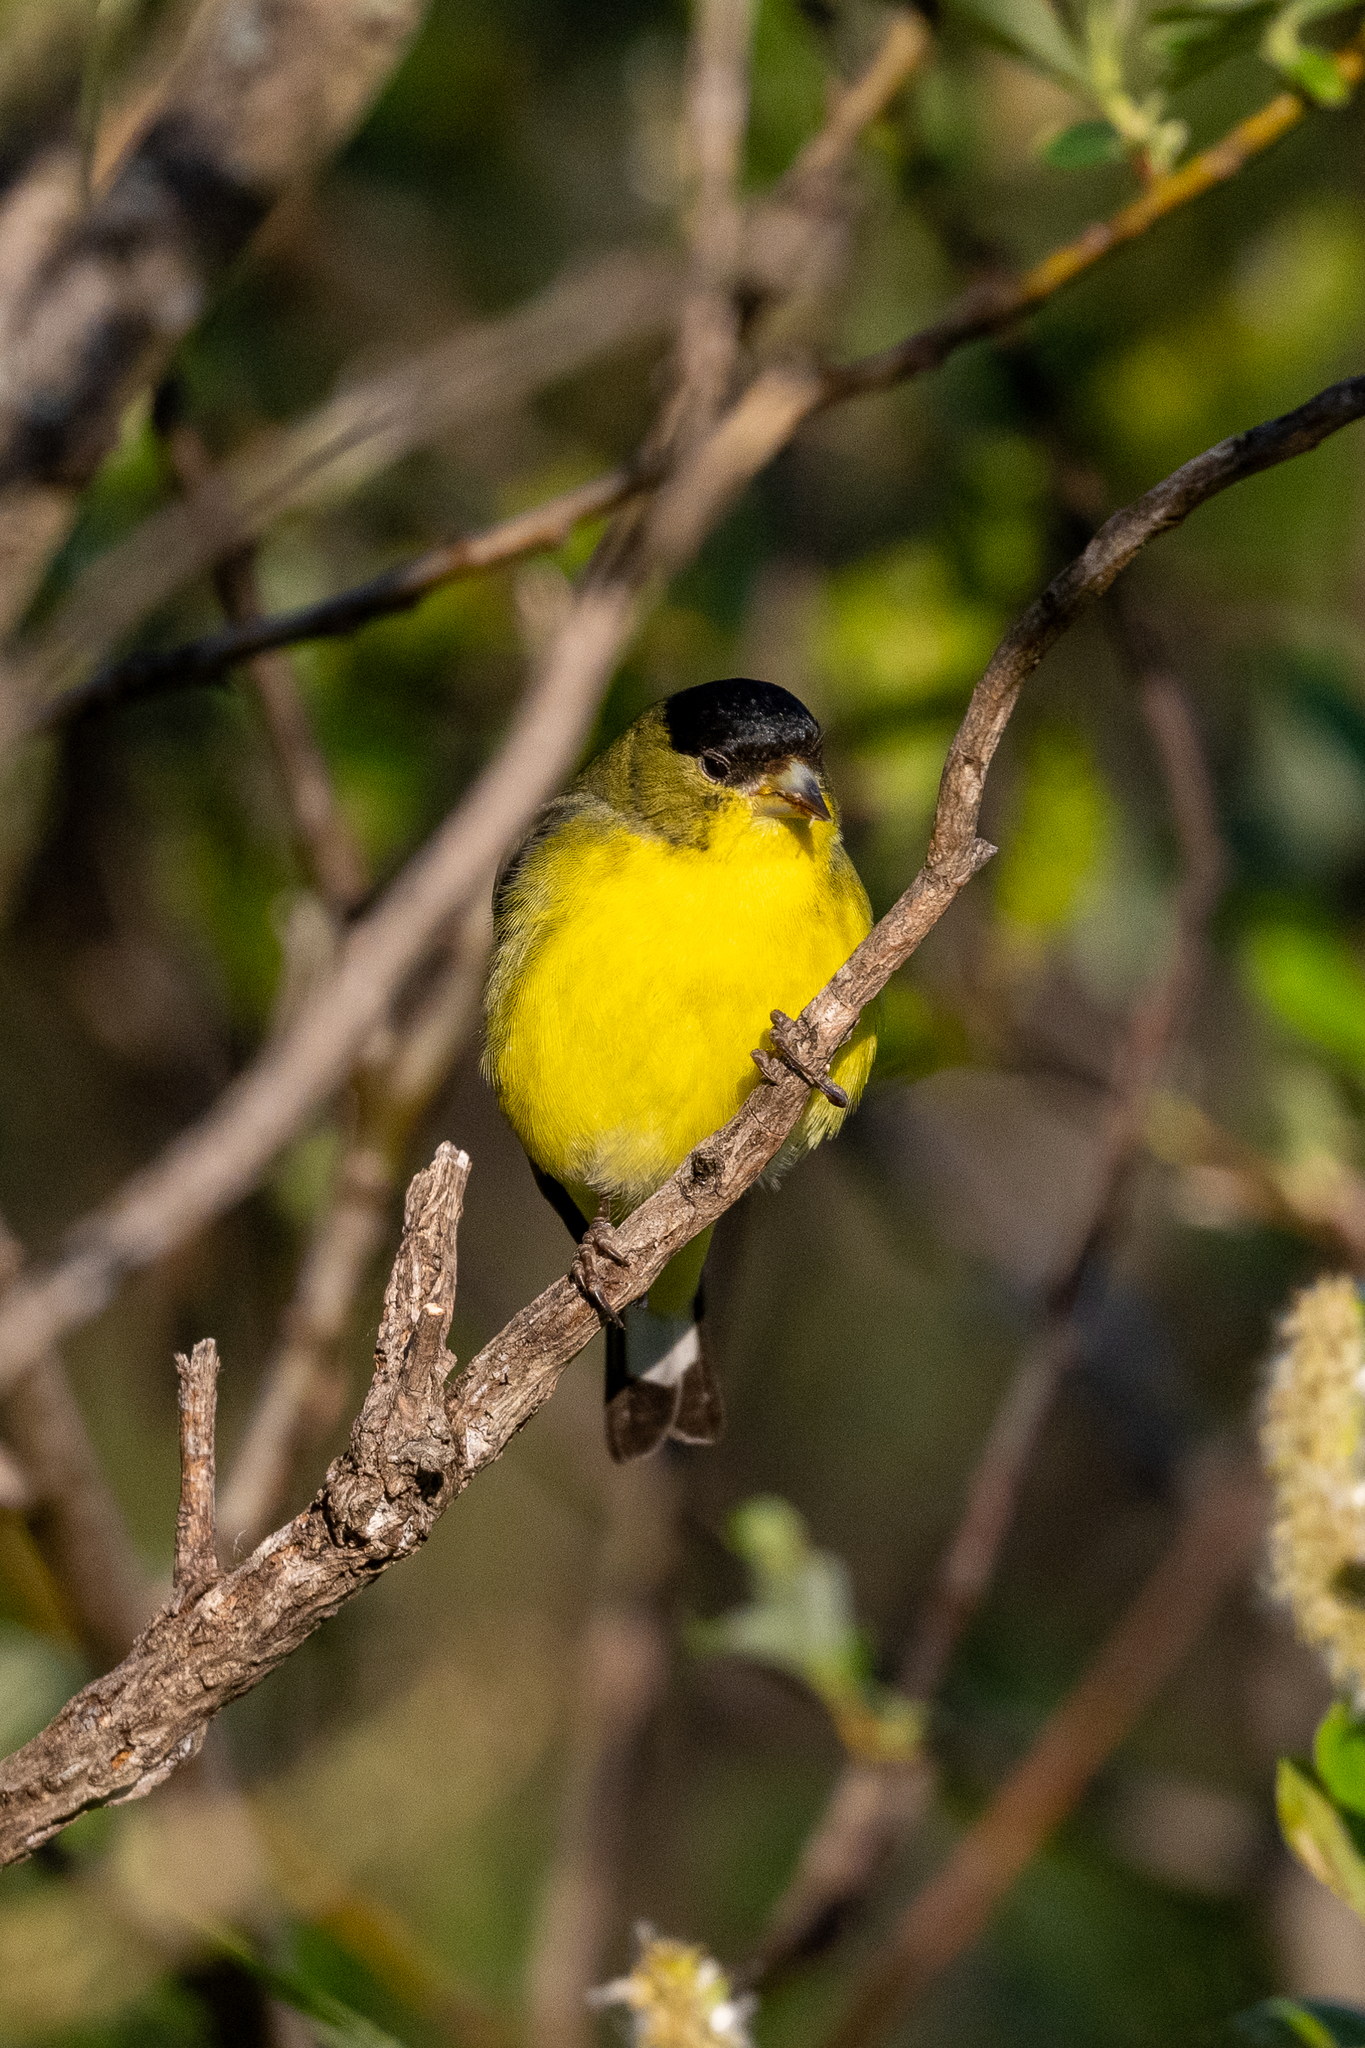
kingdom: Animalia
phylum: Chordata
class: Aves
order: Passeriformes
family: Fringillidae
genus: Spinus
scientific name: Spinus psaltria
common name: Lesser goldfinch
